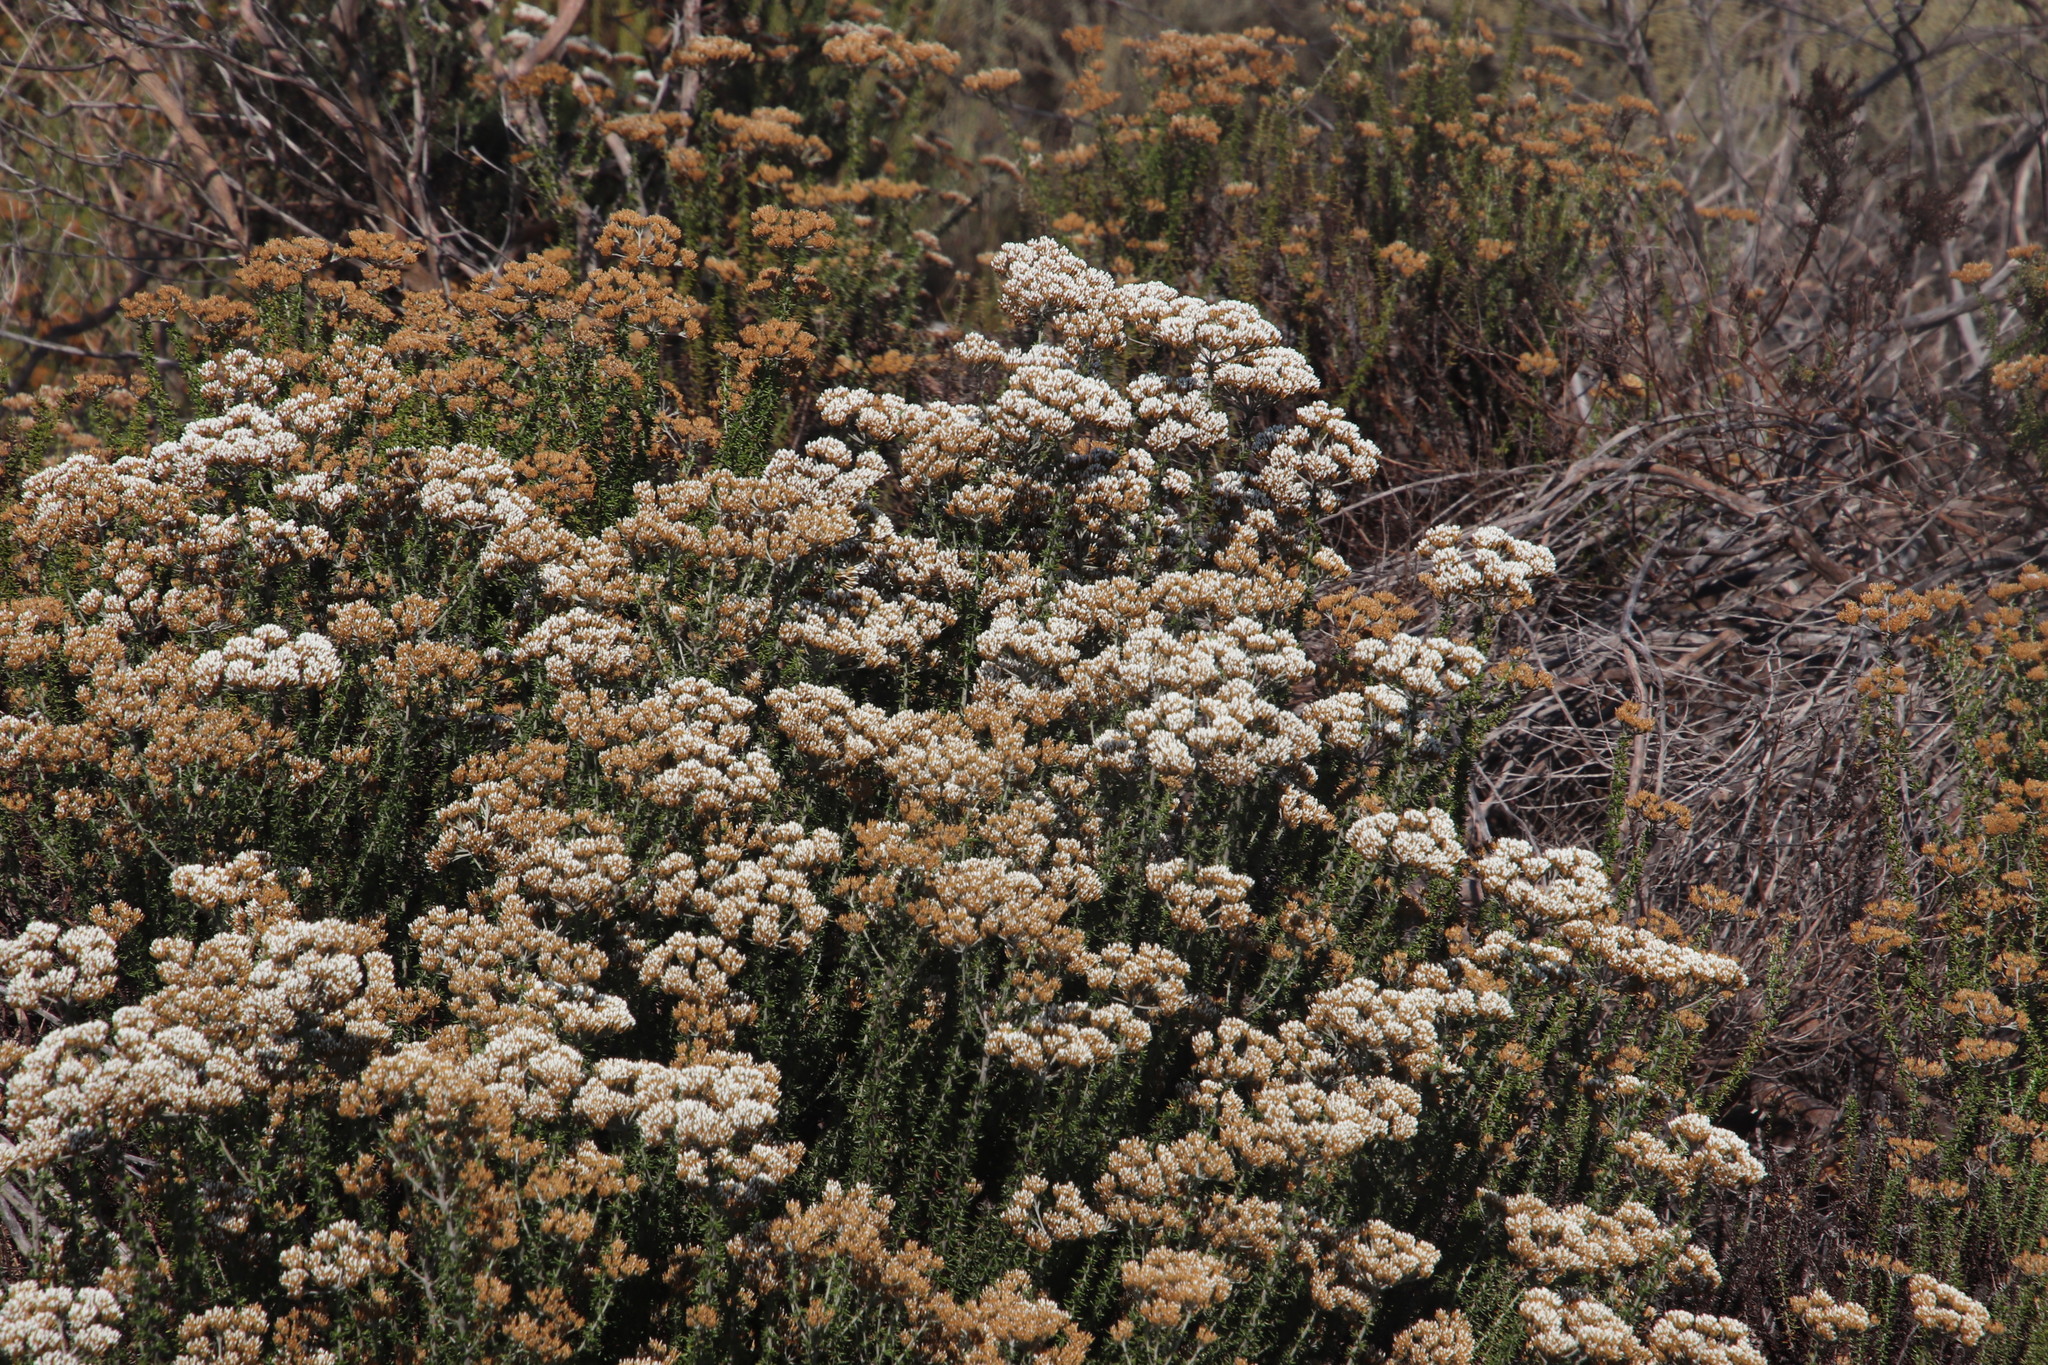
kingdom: Plantae
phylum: Tracheophyta
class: Magnoliopsida
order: Asterales
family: Asteraceae
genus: Metalasia
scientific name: Metalasia densa
